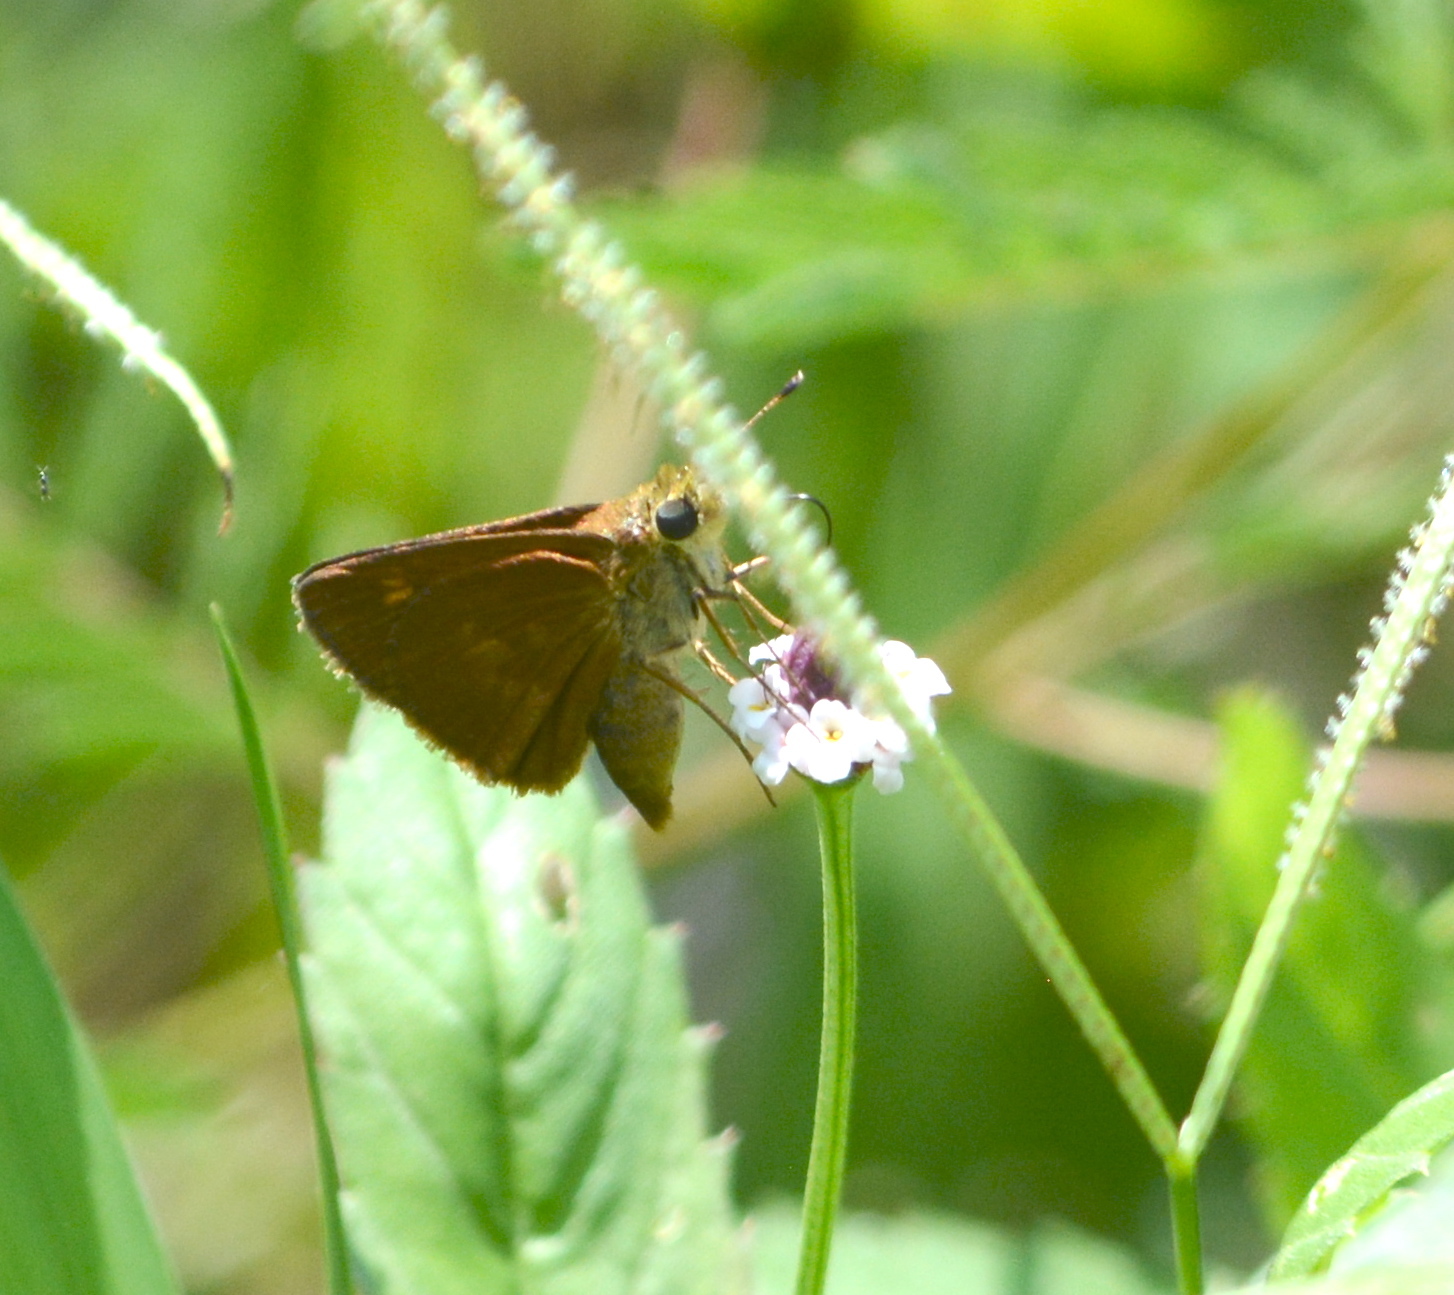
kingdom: Animalia
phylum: Arthropoda
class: Insecta
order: Lepidoptera
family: Hesperiidae
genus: Polites
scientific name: Polites otho
